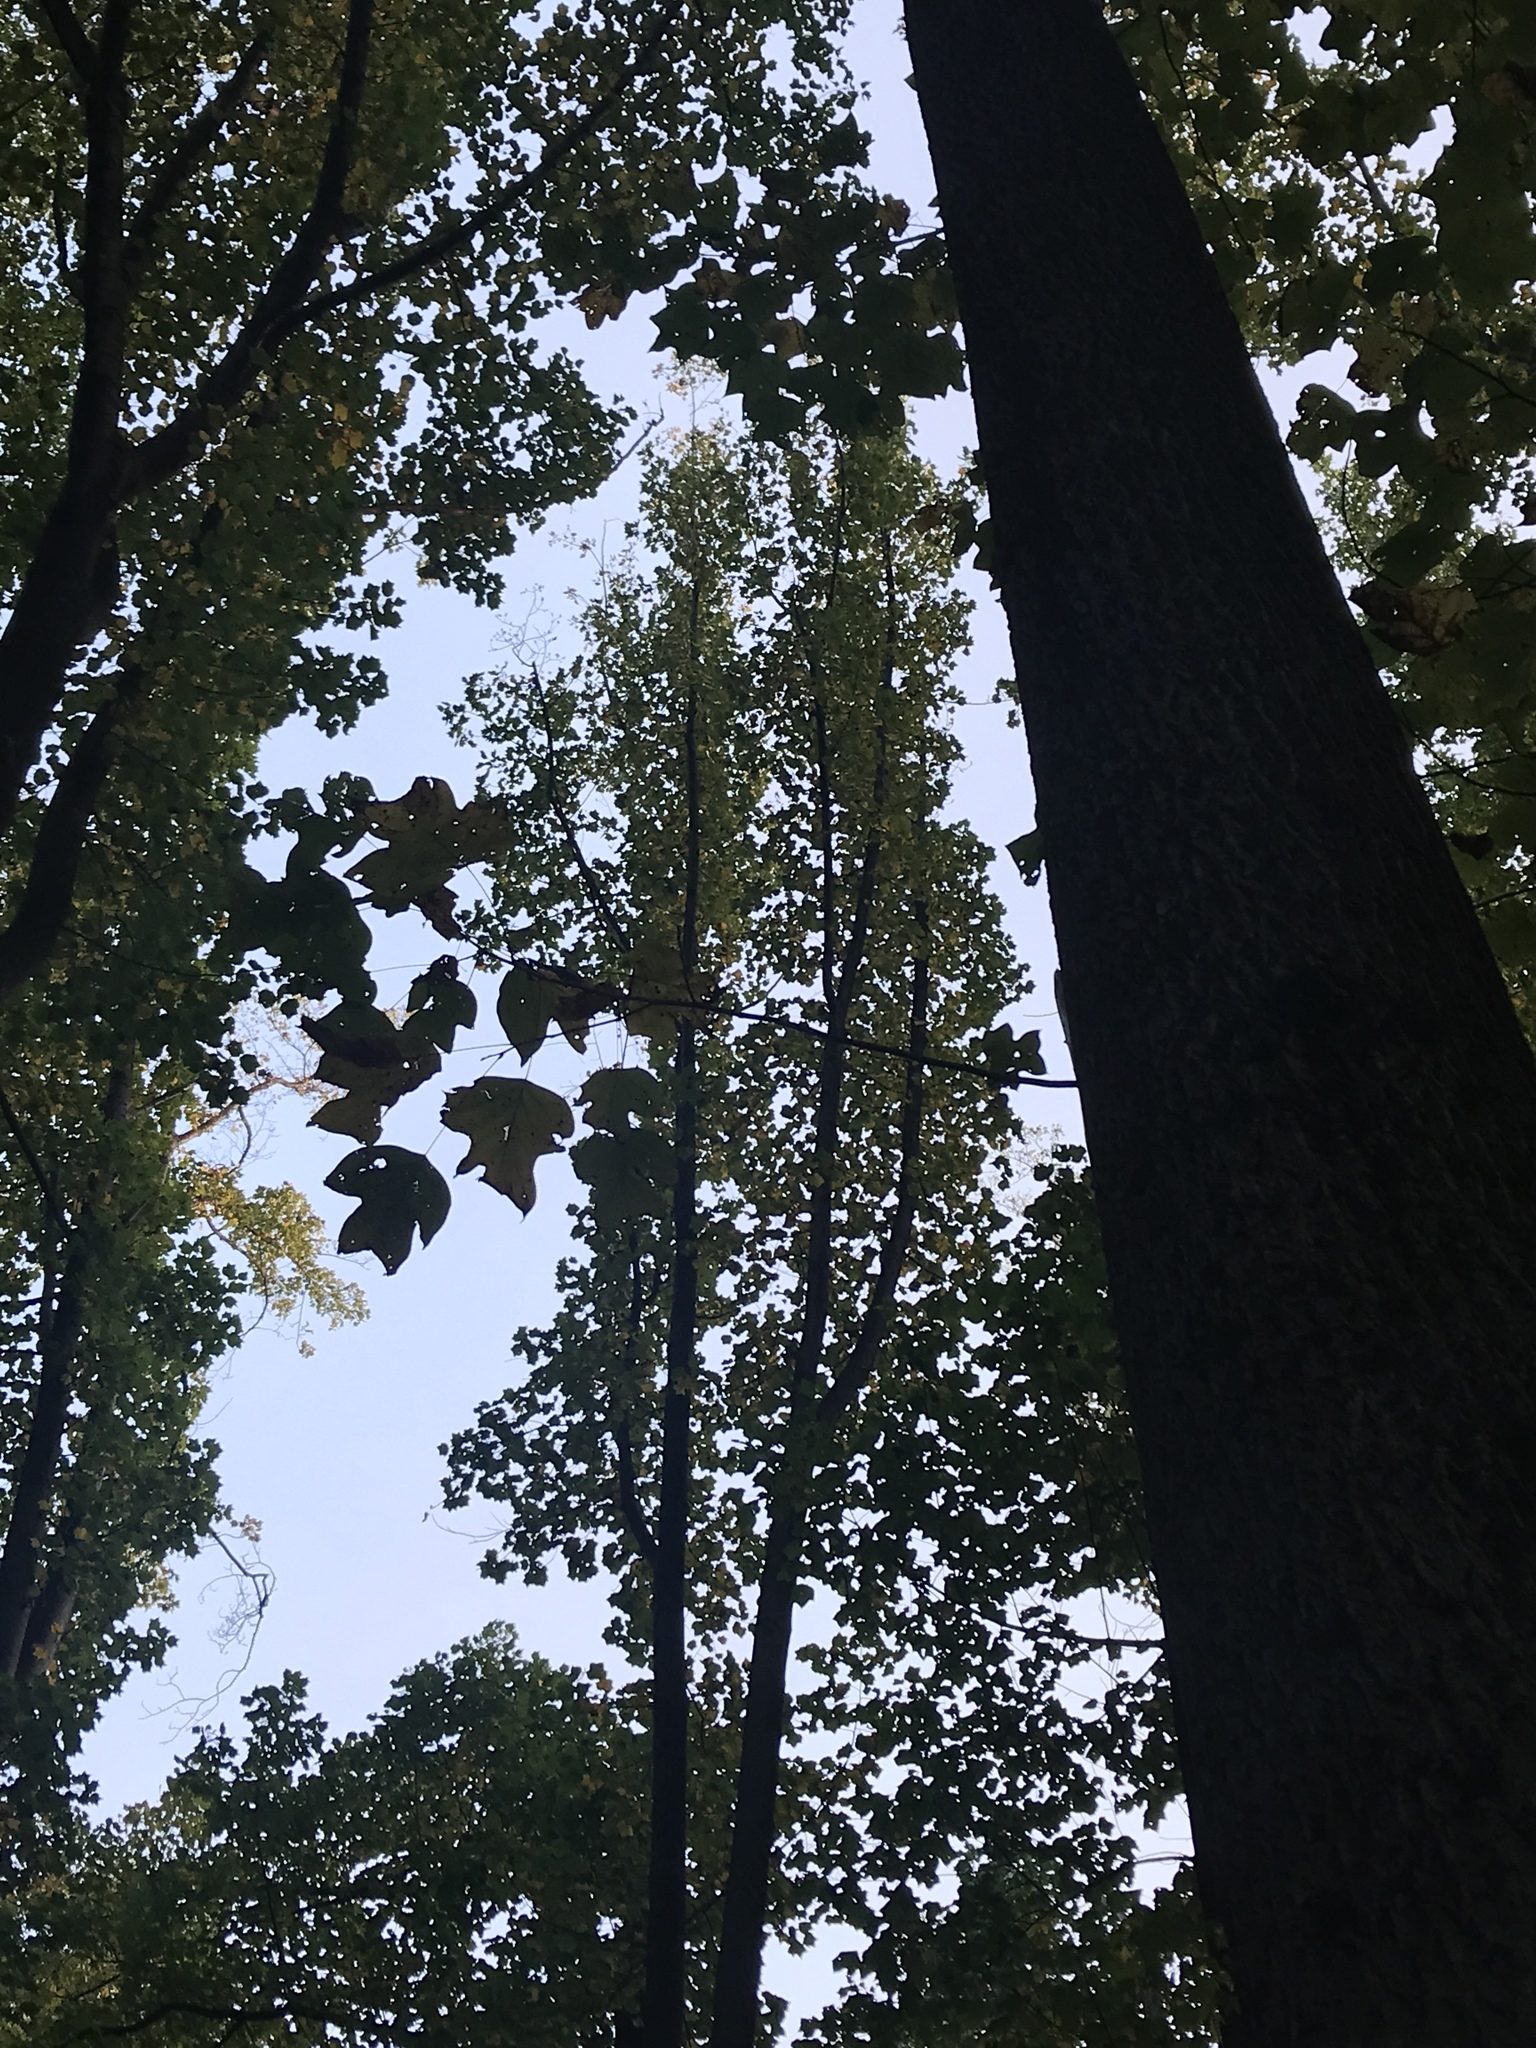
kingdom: Plantae
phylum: Tracheophyta
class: Magnoliopsida
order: Magnoliales
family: Magnoliaceae
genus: Liriodendron
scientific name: Liriodendron tulipifera
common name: Tulip tree
